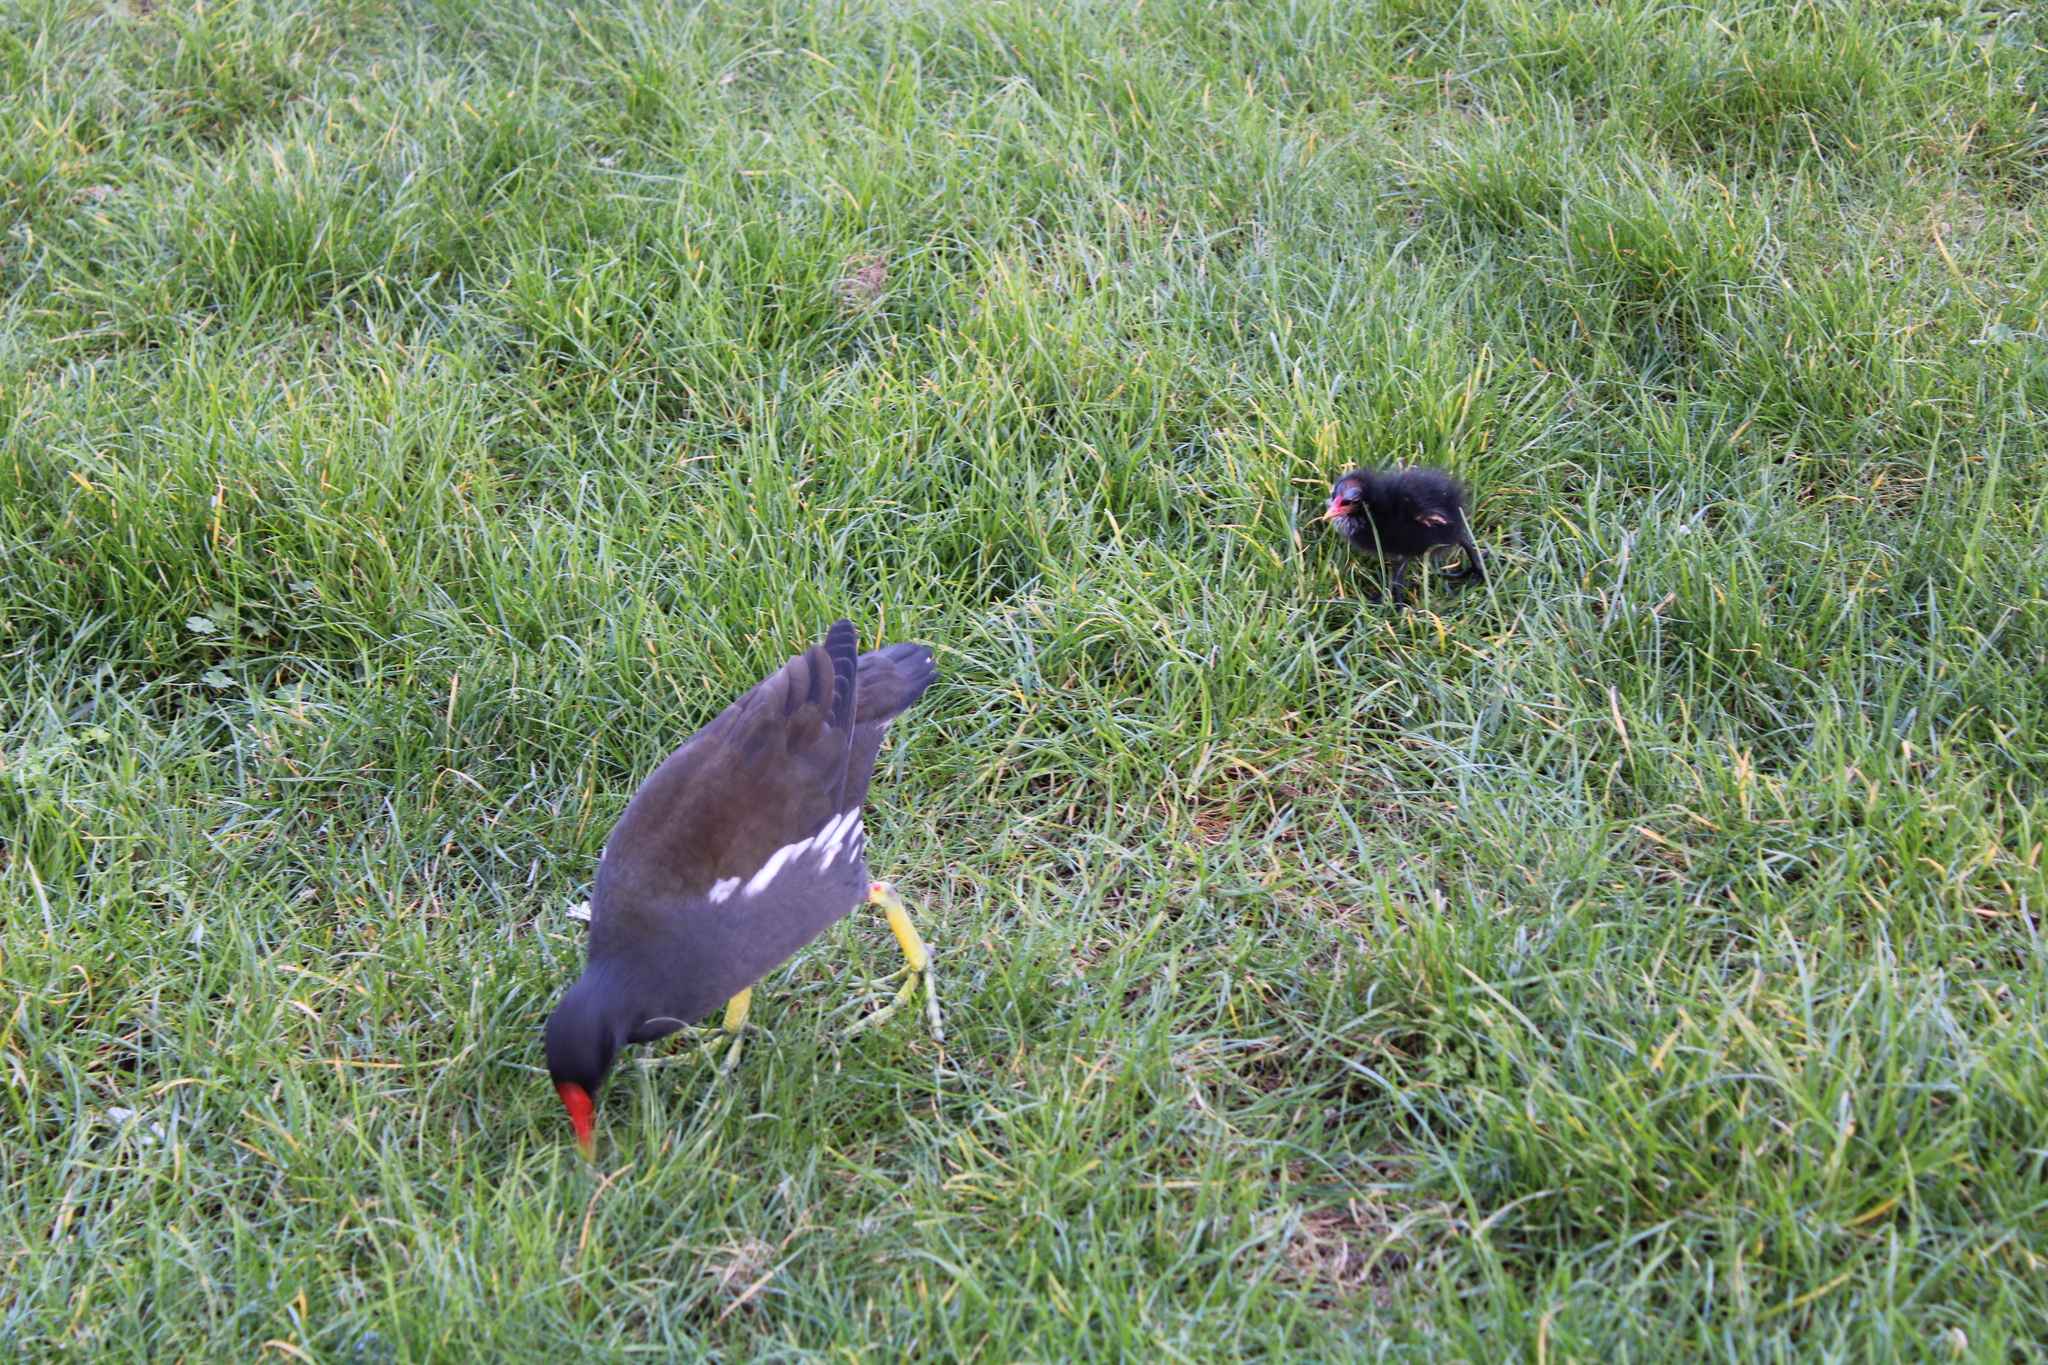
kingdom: Animalia
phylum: Chordata
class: Aves
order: Gruiformes
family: Rallidae
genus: Gallinula
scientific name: Gallinula chloropus
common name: Common moorhen
